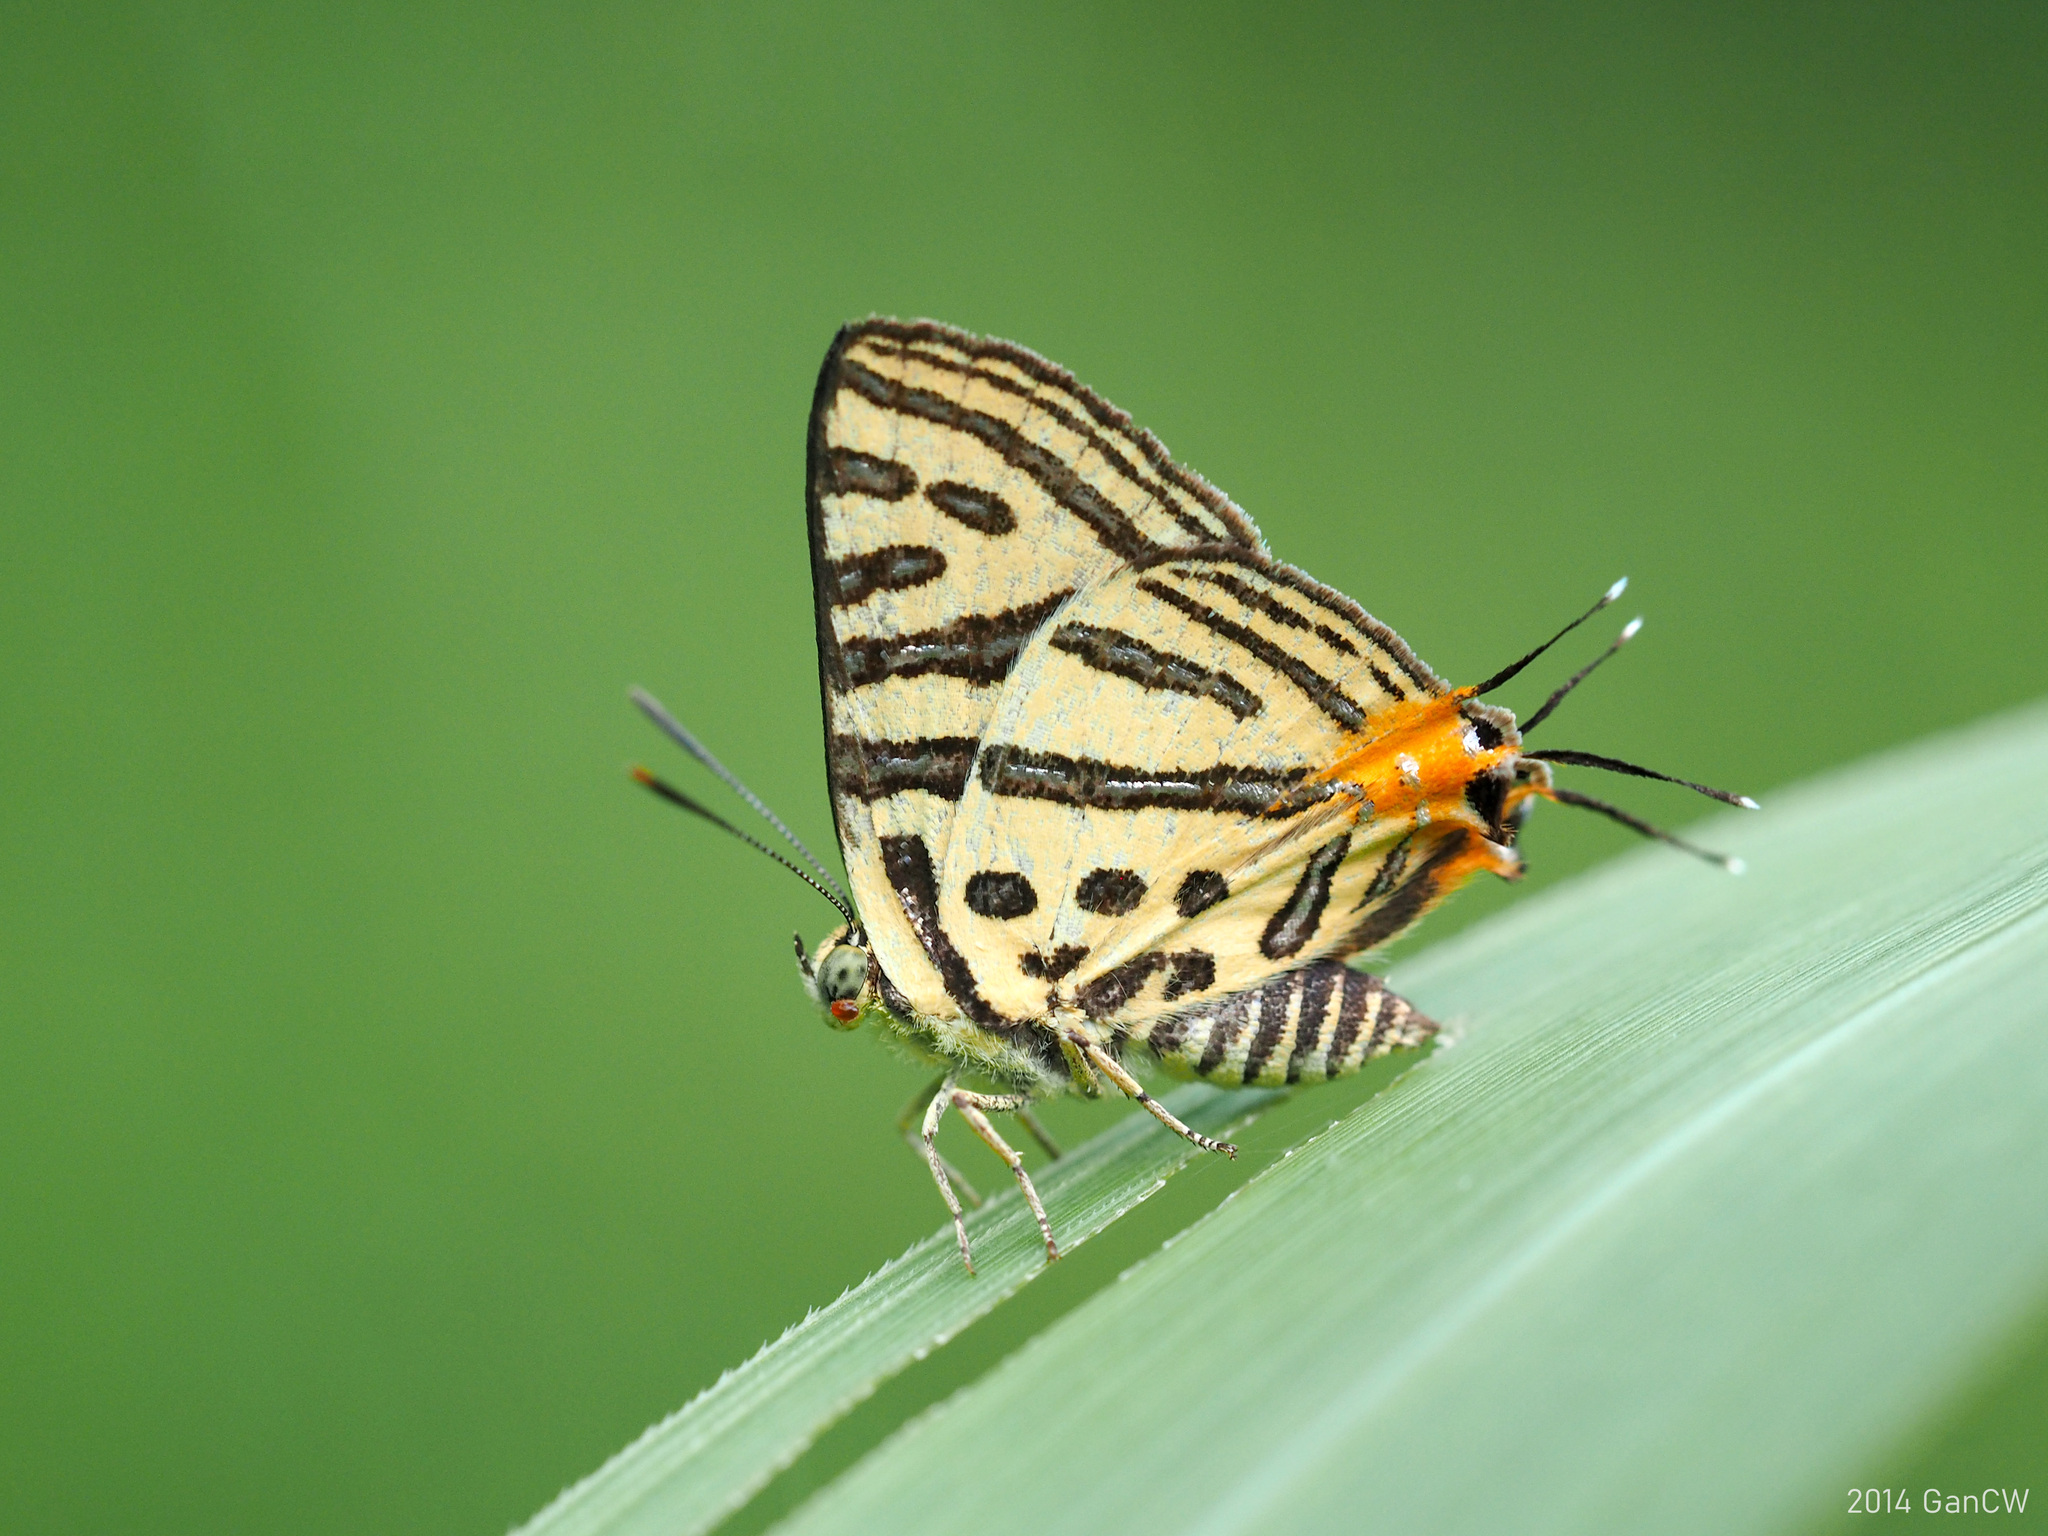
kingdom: Animalia
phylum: Arthropoda
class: Insecta
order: Lepidoptera
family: Lycaenidae
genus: Cigaritis
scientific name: Cigaritis syama
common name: Club silverline
